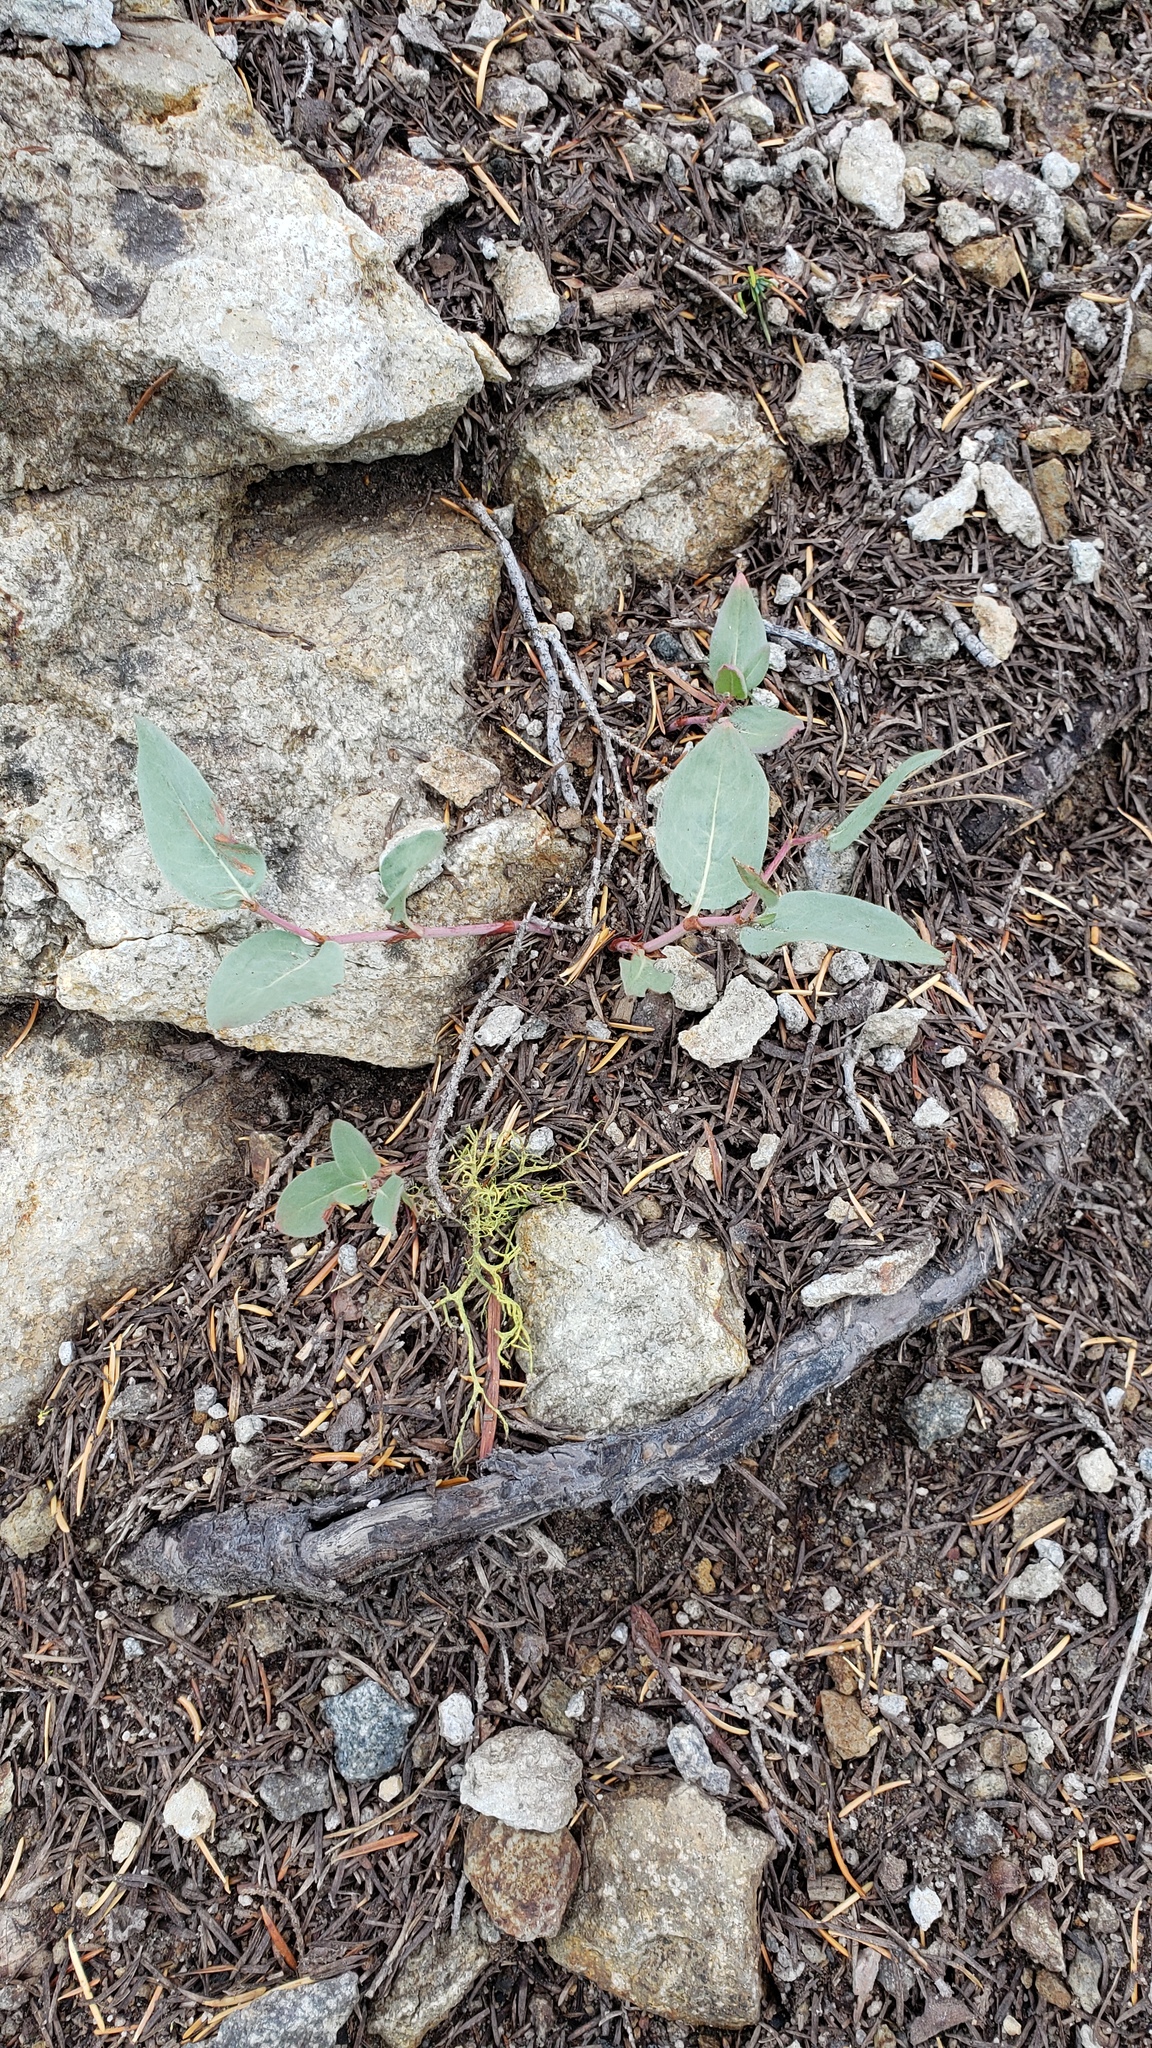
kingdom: Plantae
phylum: Tracheophyta
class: Magnoliopsida
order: Caryophyllales
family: Polygonaceae
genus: Koenigia
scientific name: Koenigia davisiae
